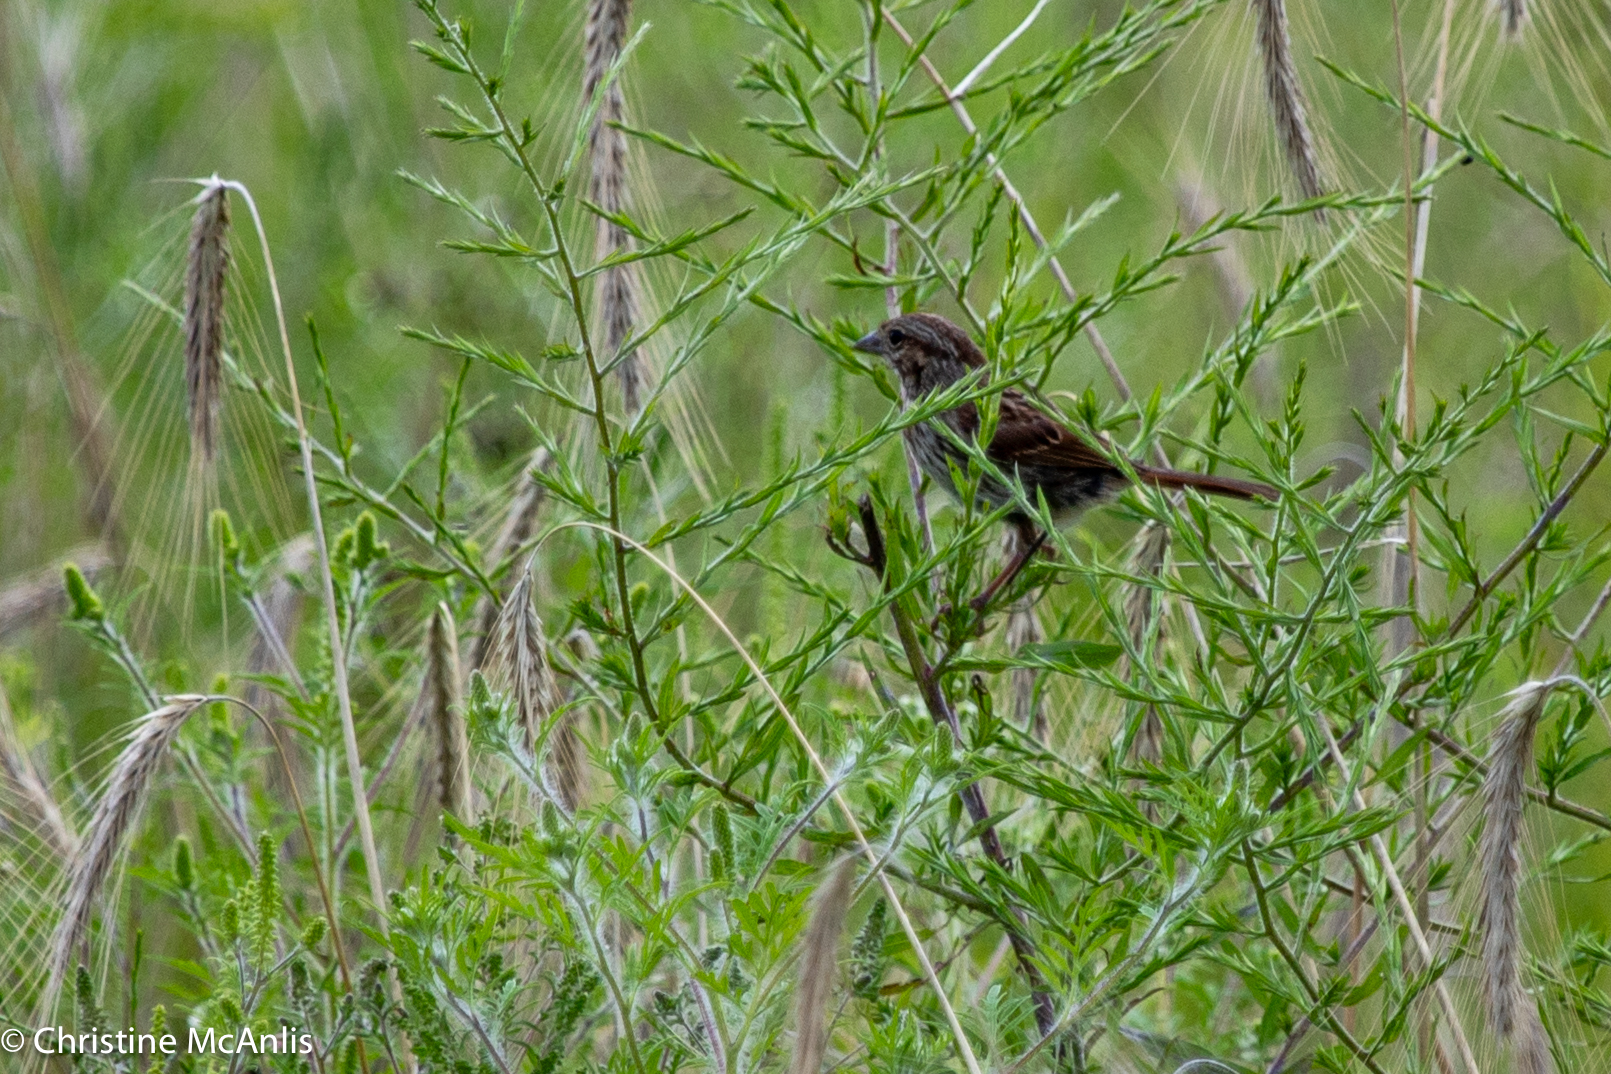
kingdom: Animalia
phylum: Chordata
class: Aves
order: Passeriformes
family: Passerellidae
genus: Melospiza
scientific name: Melospiza melodia
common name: Song sparrow
